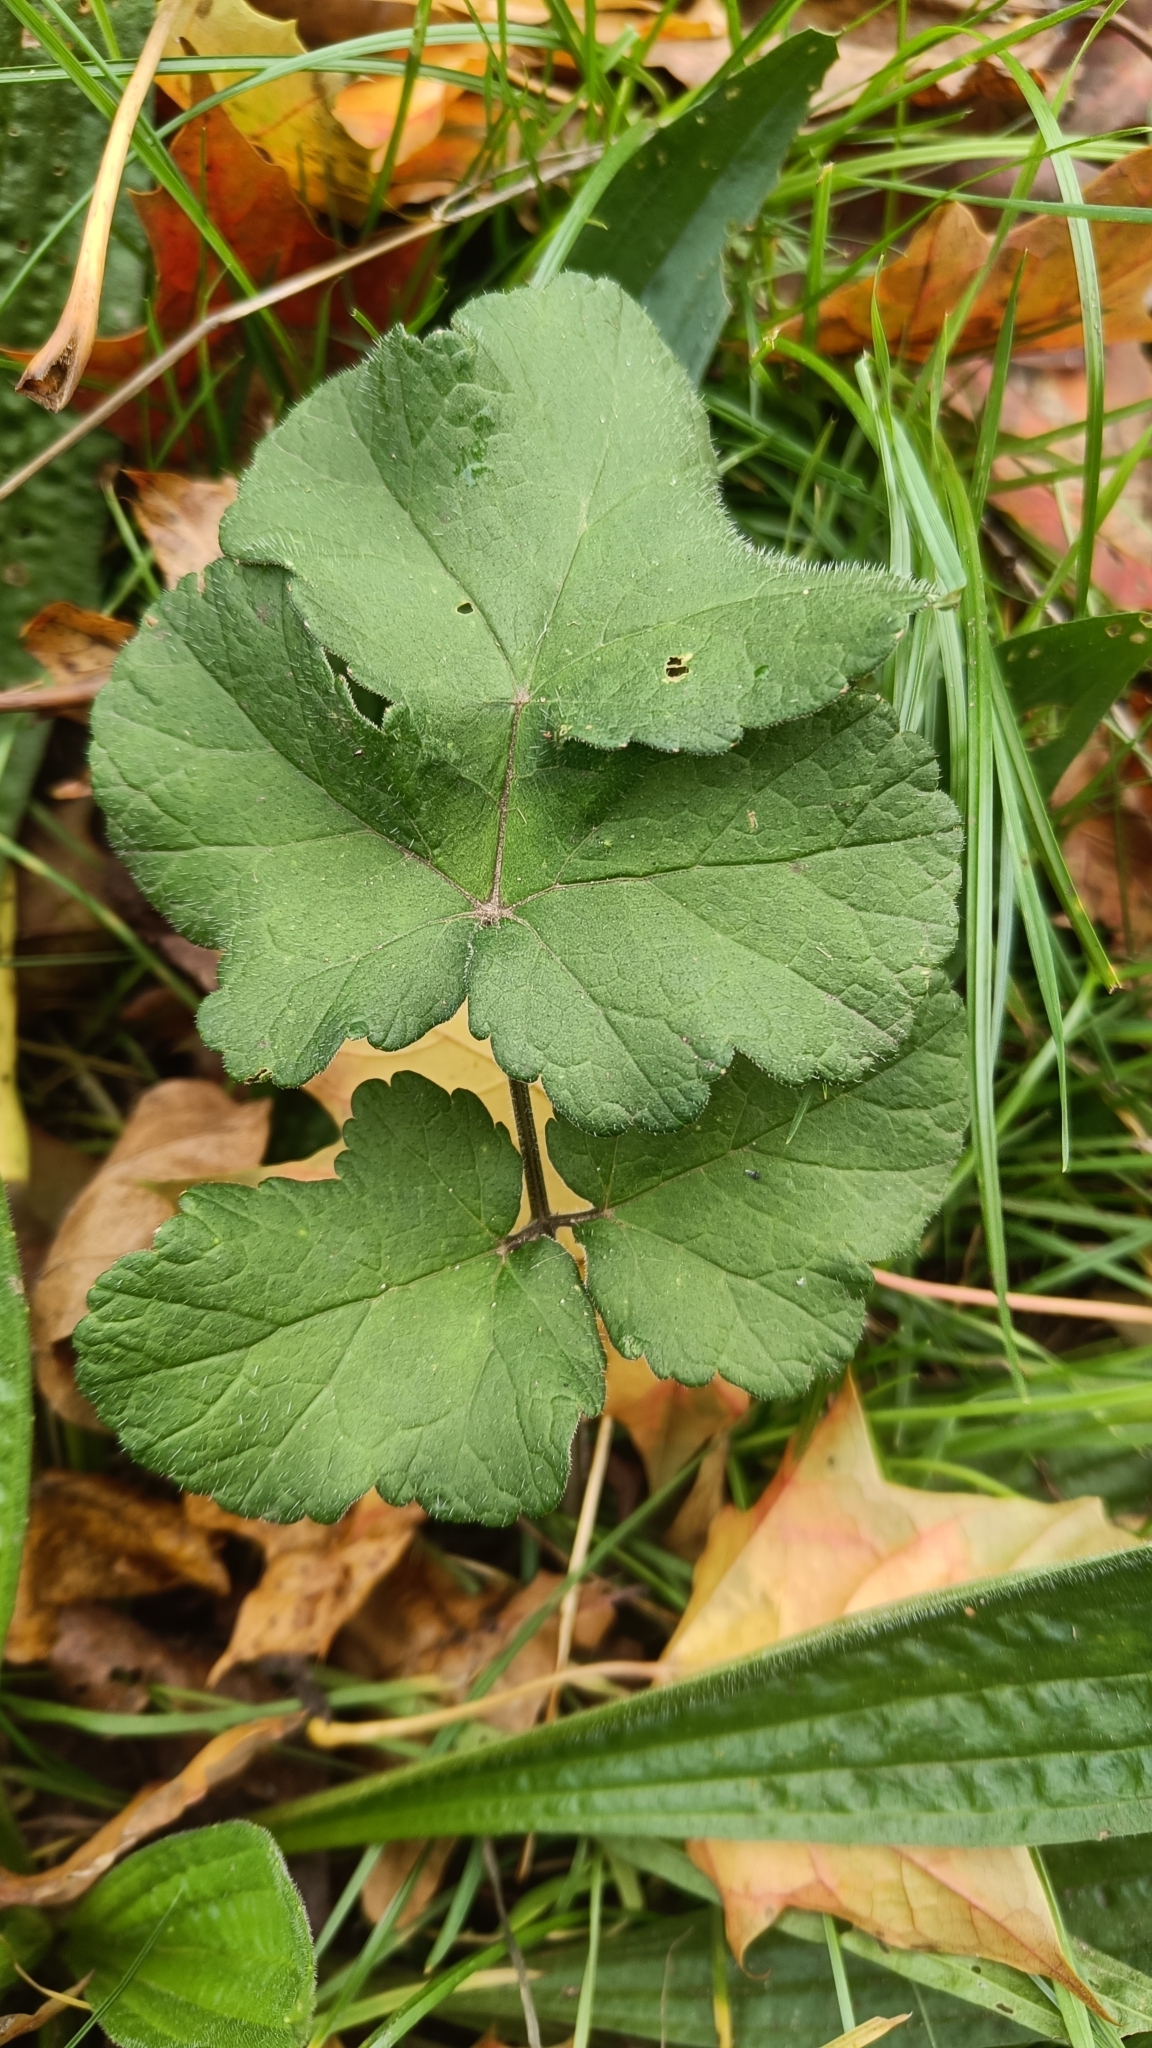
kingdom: Plantae
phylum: Tracheophyta
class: Magnoliopsida
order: Apiales
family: Apiaceae
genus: Heracleum
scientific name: Heracleum sphondylium
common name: Hogweed
